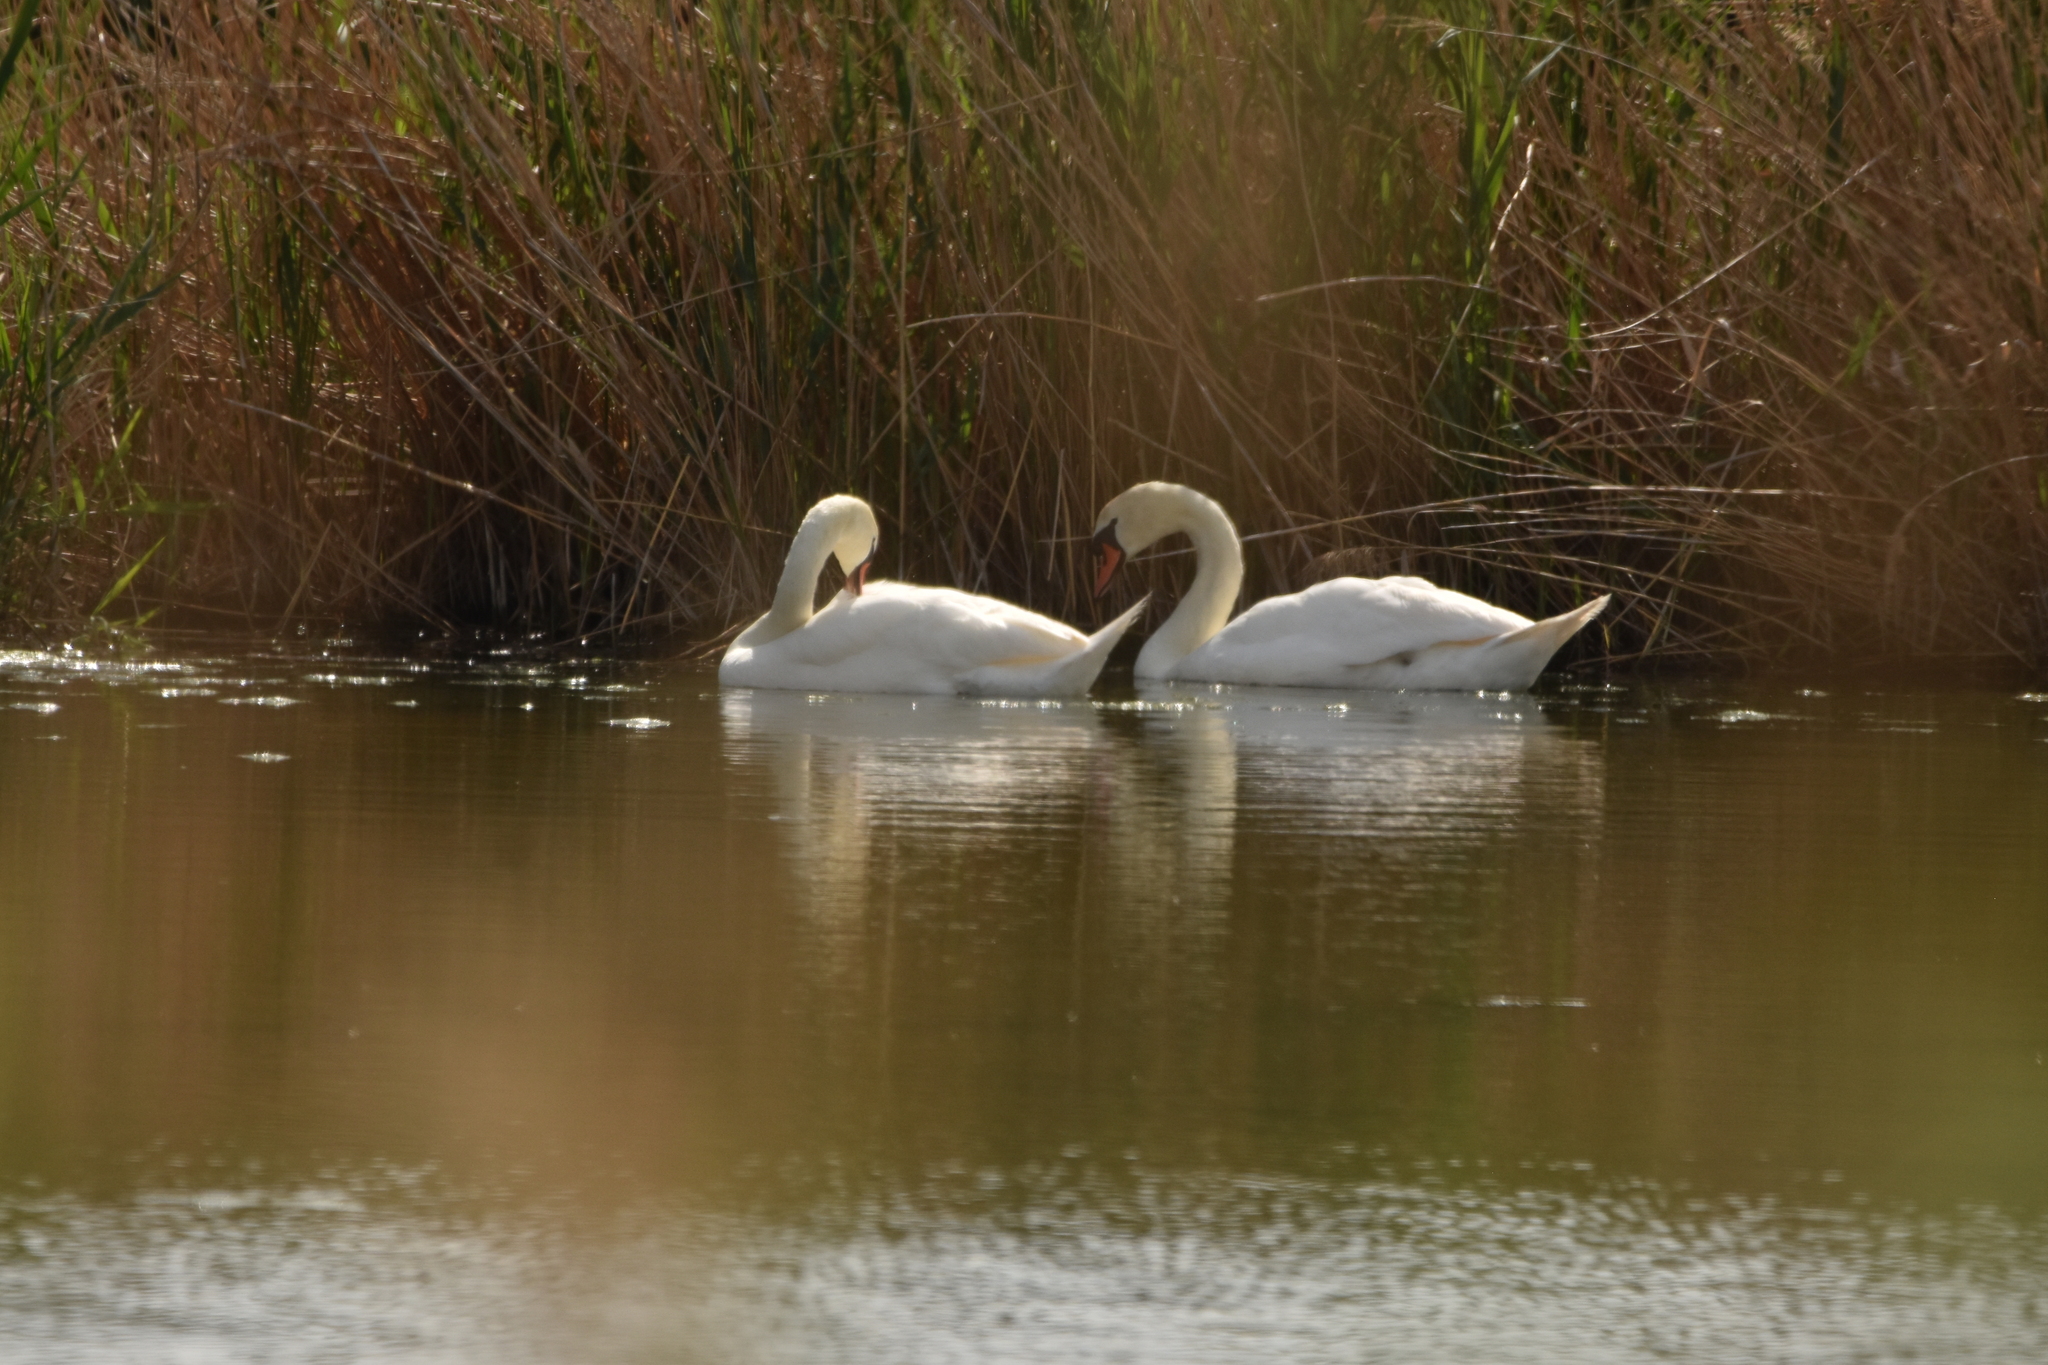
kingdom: Animalia
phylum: Chordata
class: Aves
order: Anseriformes
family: Anatidae
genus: Cygnus
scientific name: Cygnus olor
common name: Mute swan
